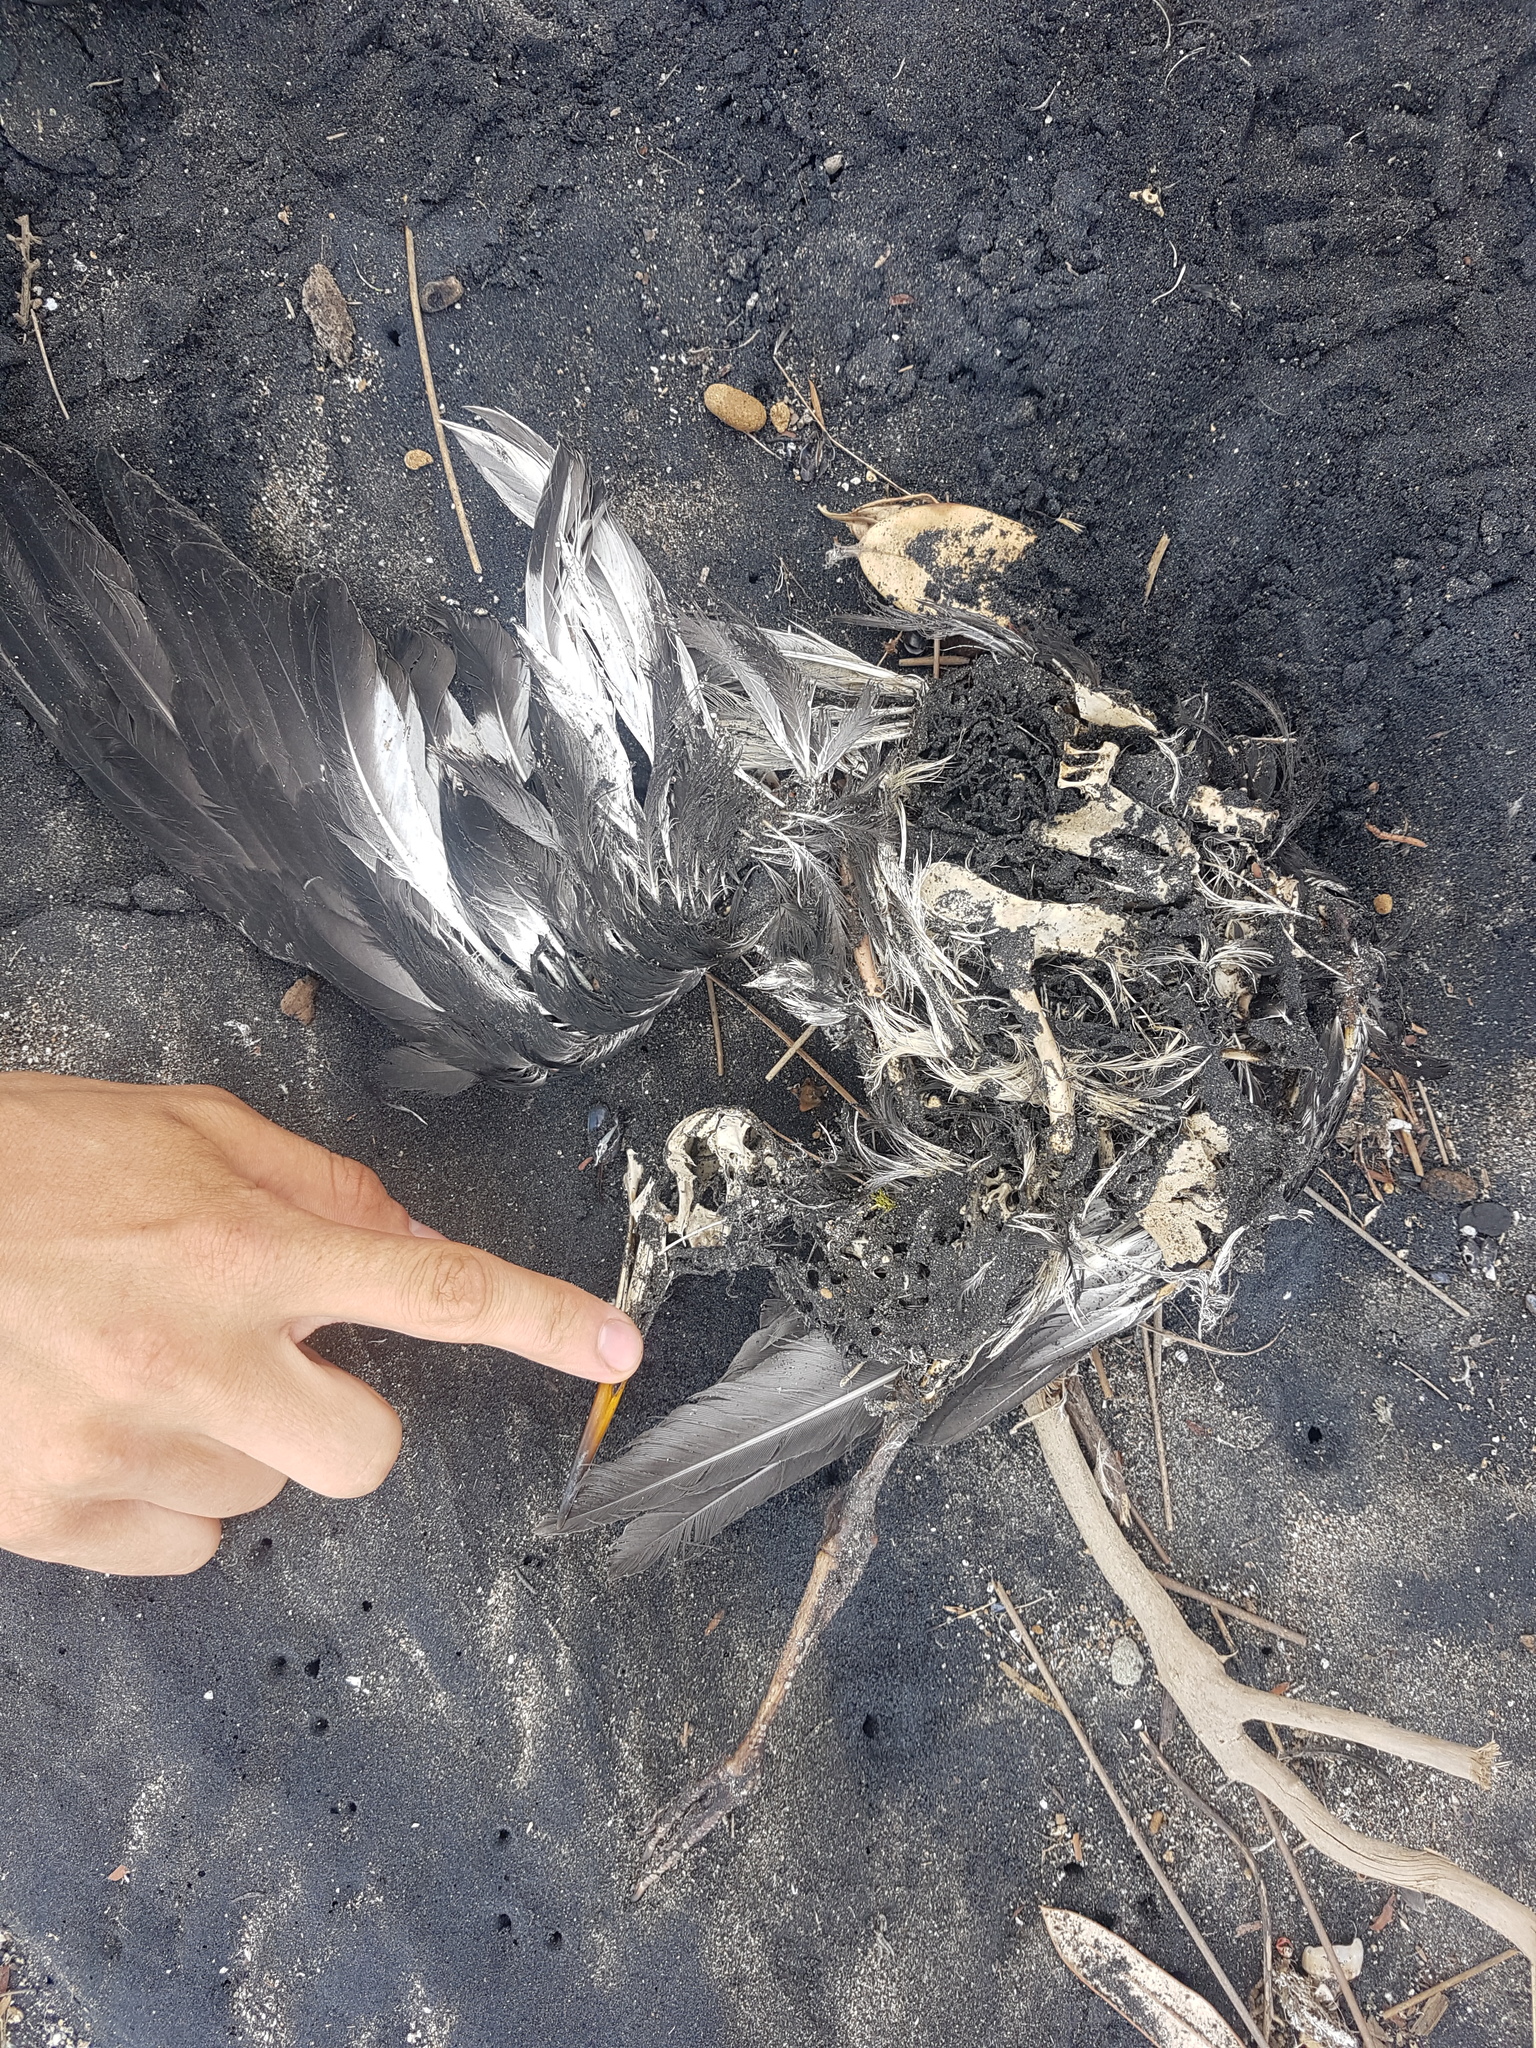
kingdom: Animalia
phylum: Chordata
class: Aves
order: Charadriiformes
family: Haematopodidae
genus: Haematopus
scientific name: Haematopus unicolor
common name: Variable oystercatcher
